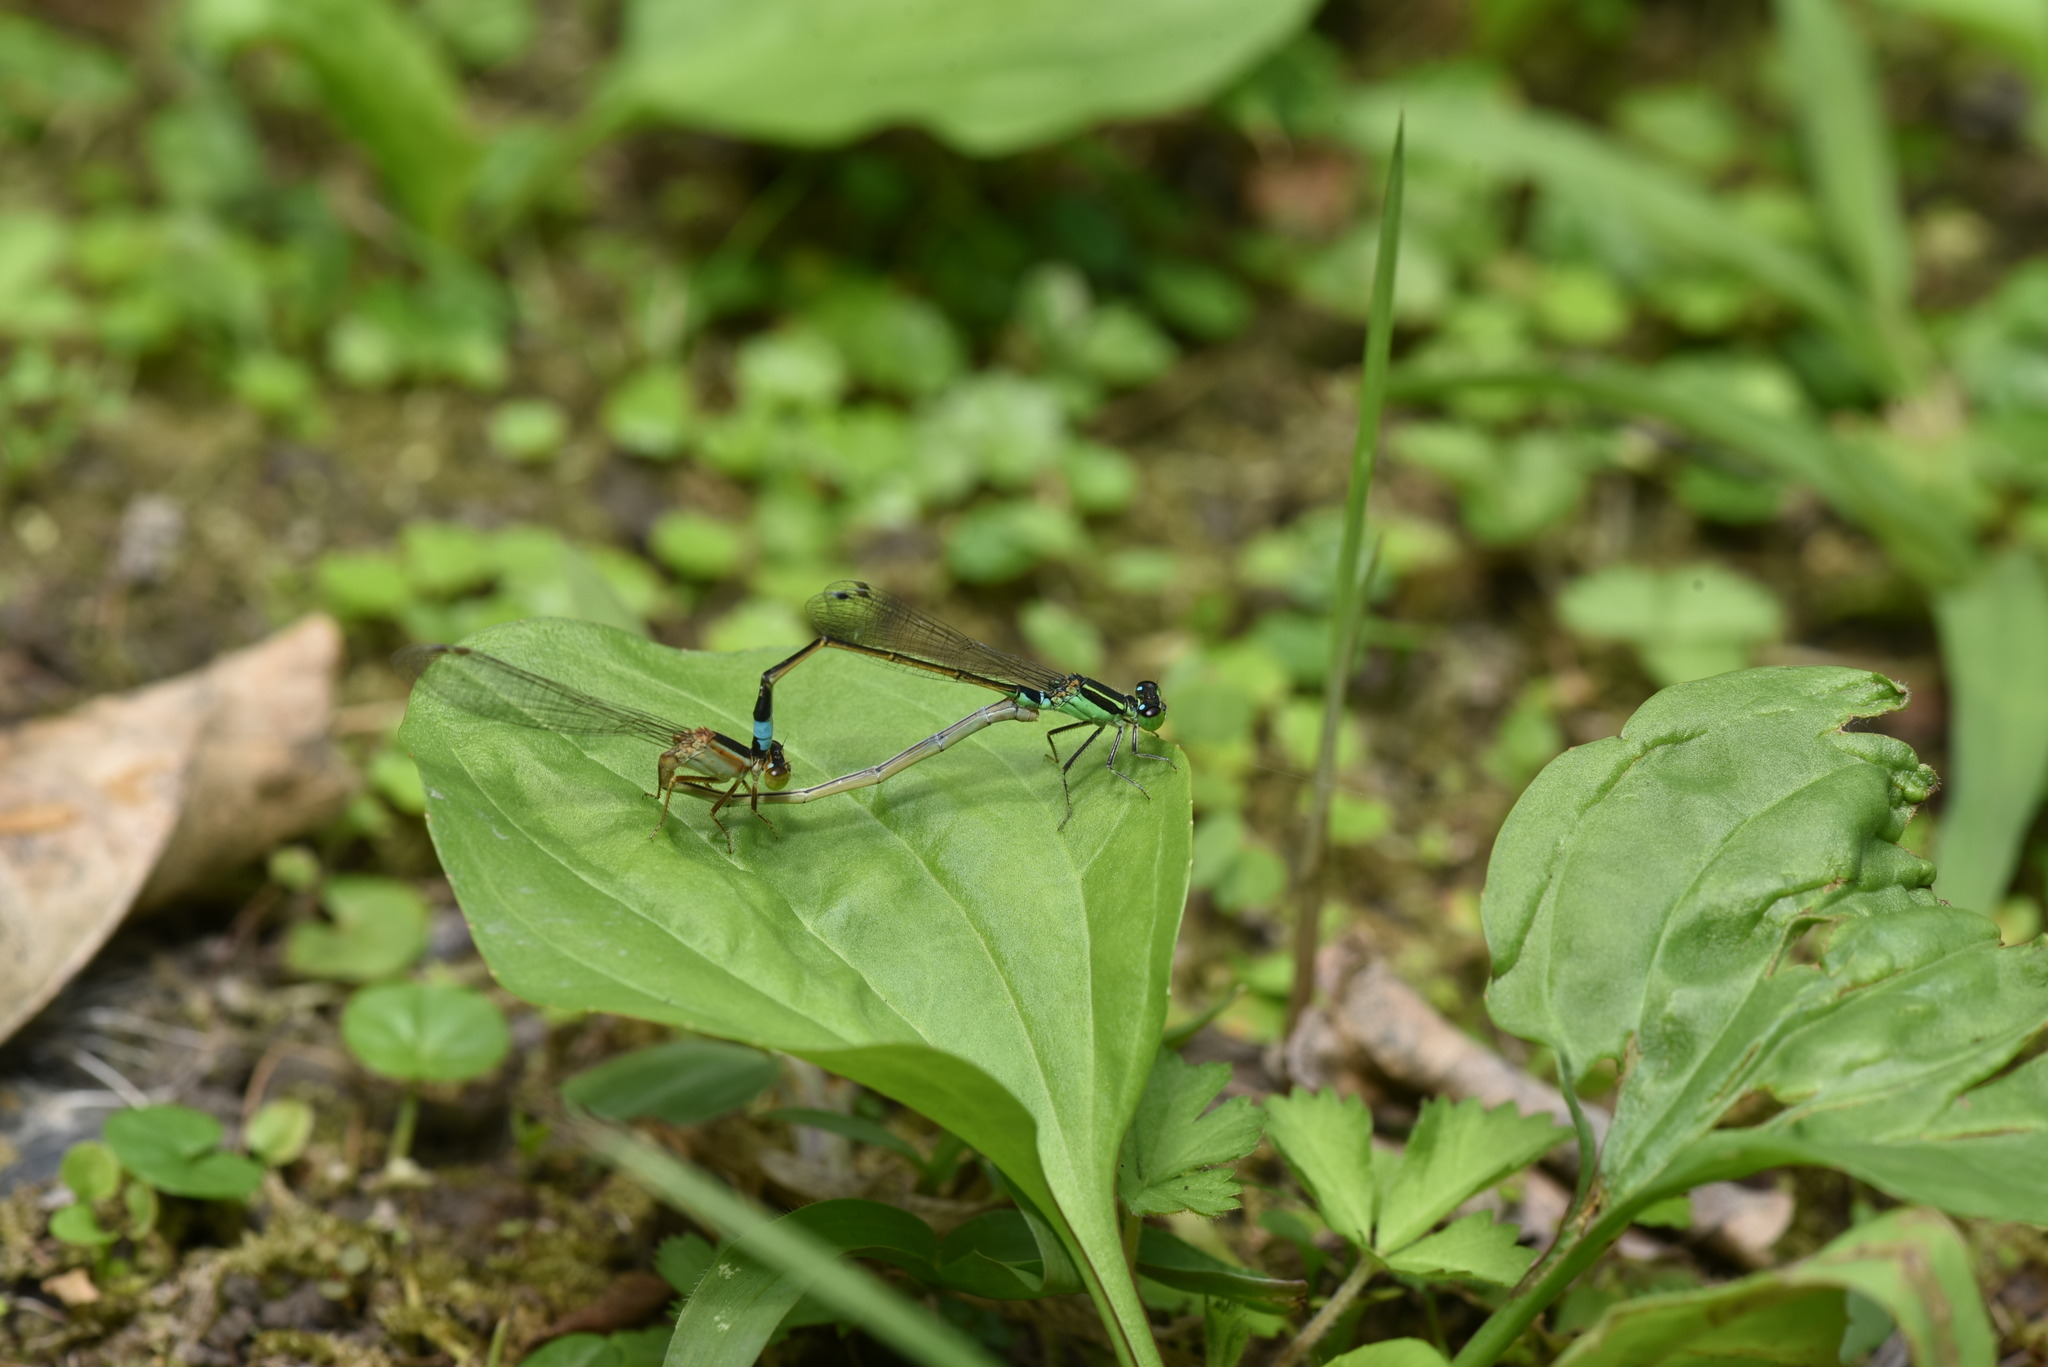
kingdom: Animalia
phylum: Arthropoda
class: Insecta
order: Odonata
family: Coenagrionidae
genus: Ischnura
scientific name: Ischnura senegalensis
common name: Tropical bluetail
